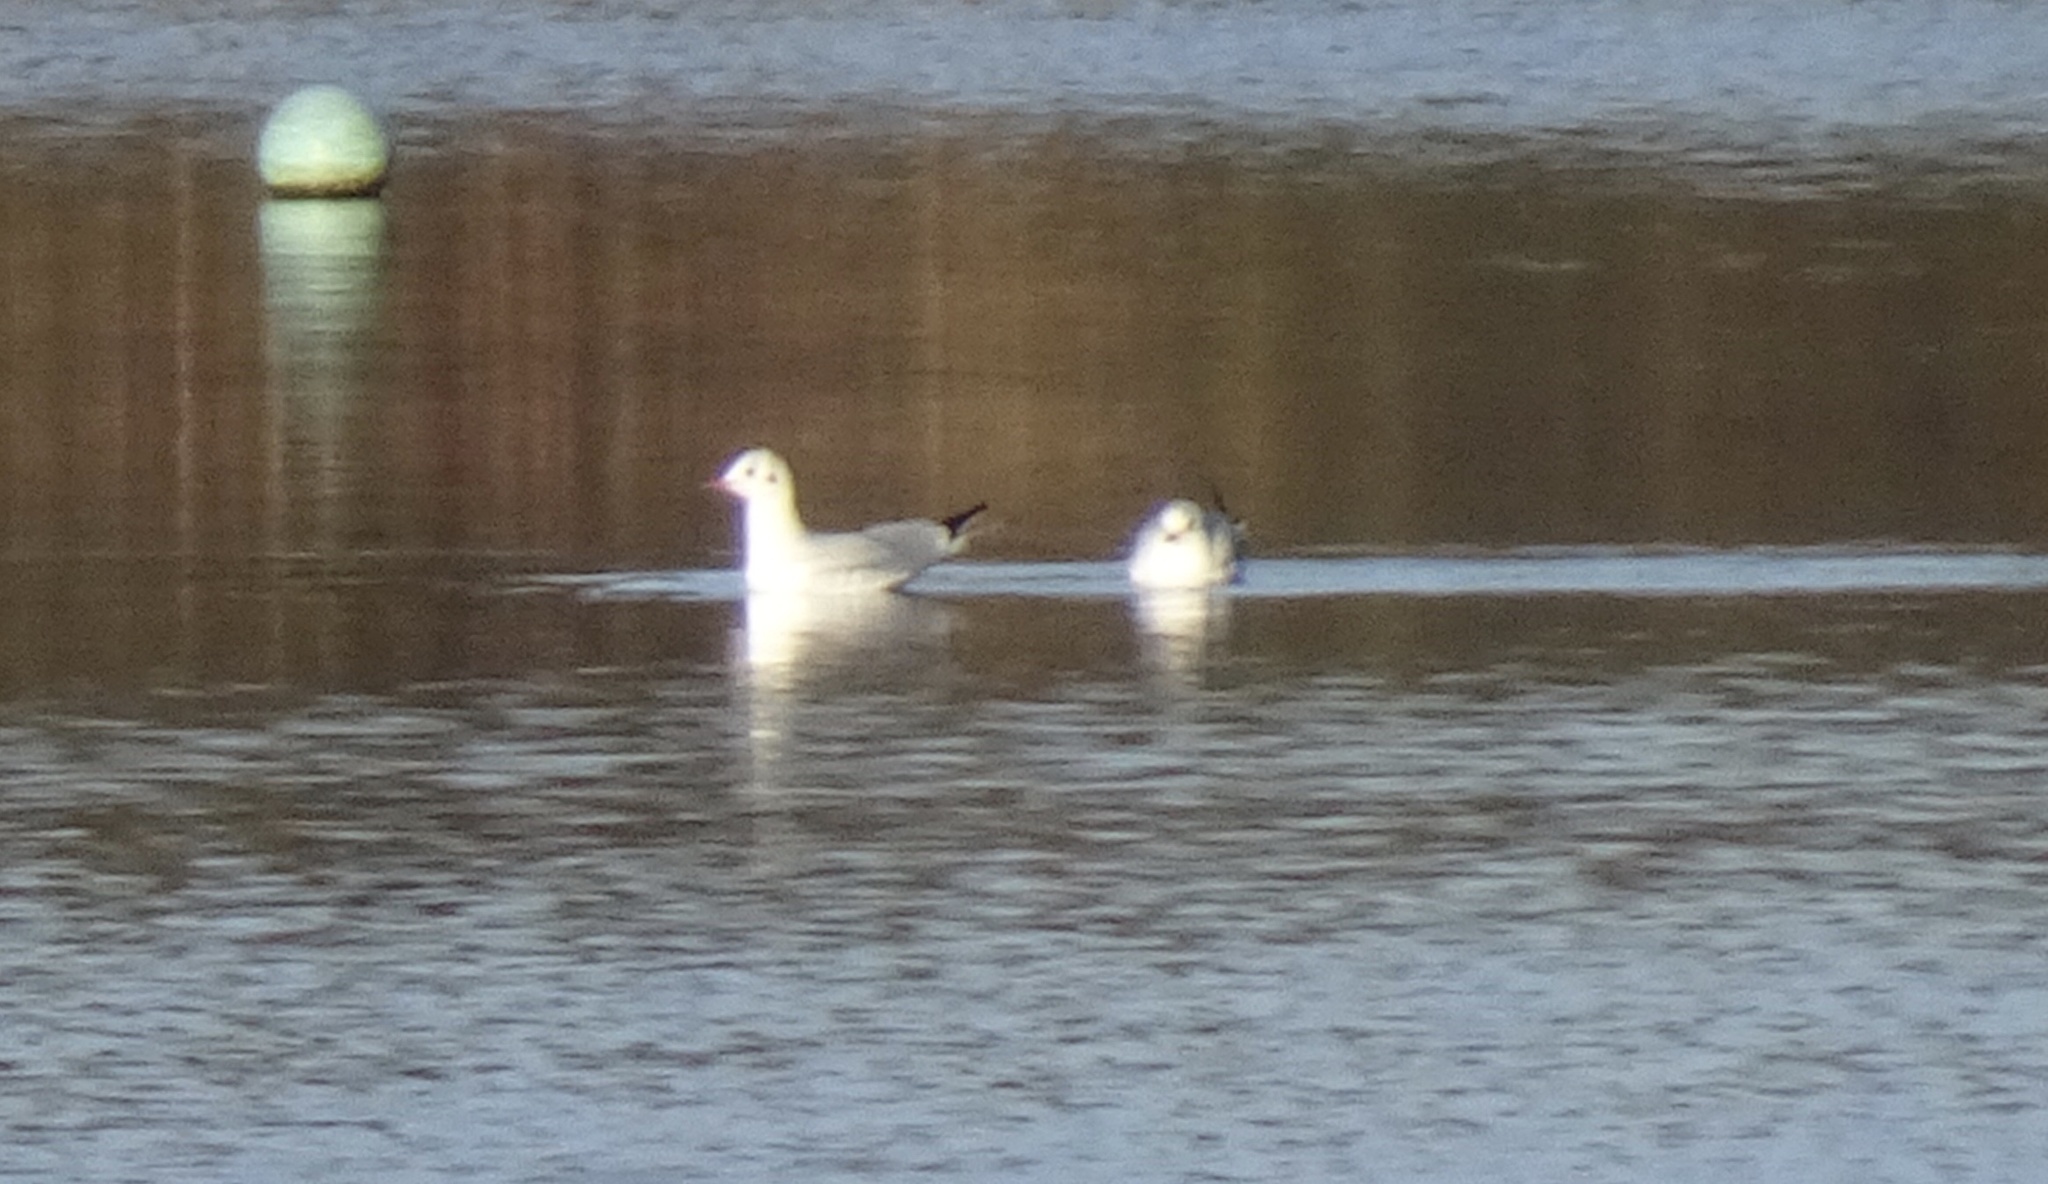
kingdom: Animalia
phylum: Chordata
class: Aves
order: Charadriiformes
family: Laridae
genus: Chroicocephalus
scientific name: Chroicocephalus ridibundus
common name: Black-headed gull
